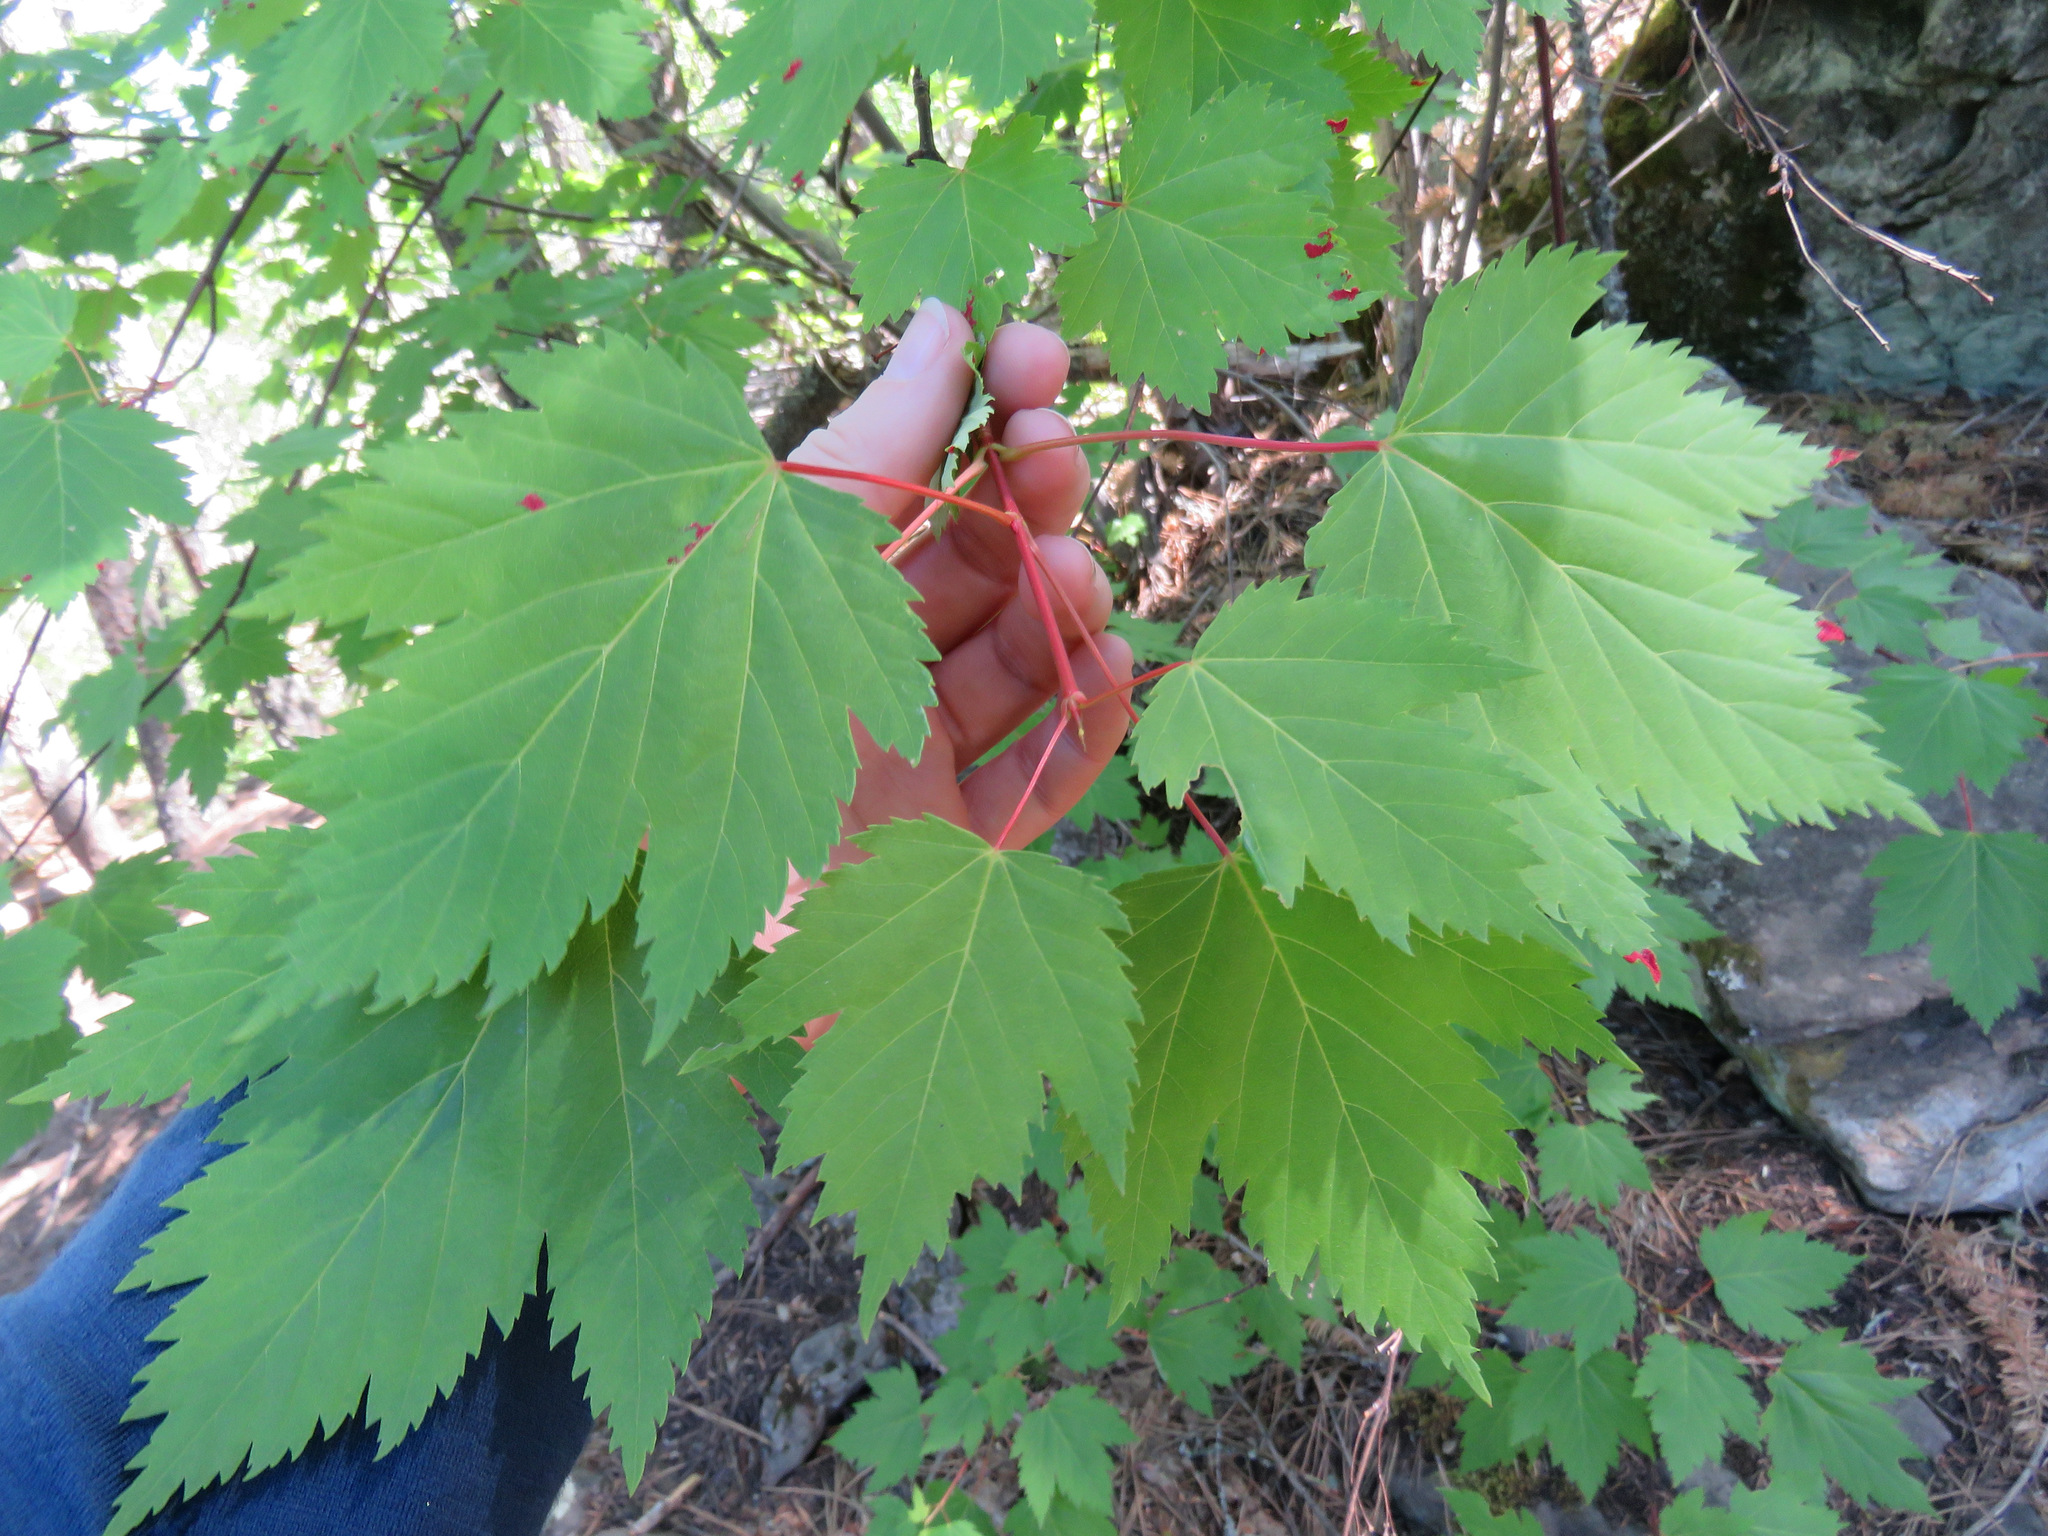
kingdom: Plantae
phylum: Tracheophyta
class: Magnoliopsida
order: Sapindales
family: Sapindaceae
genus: Acer
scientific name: Acer glabrum
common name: Rocky mountain maple
